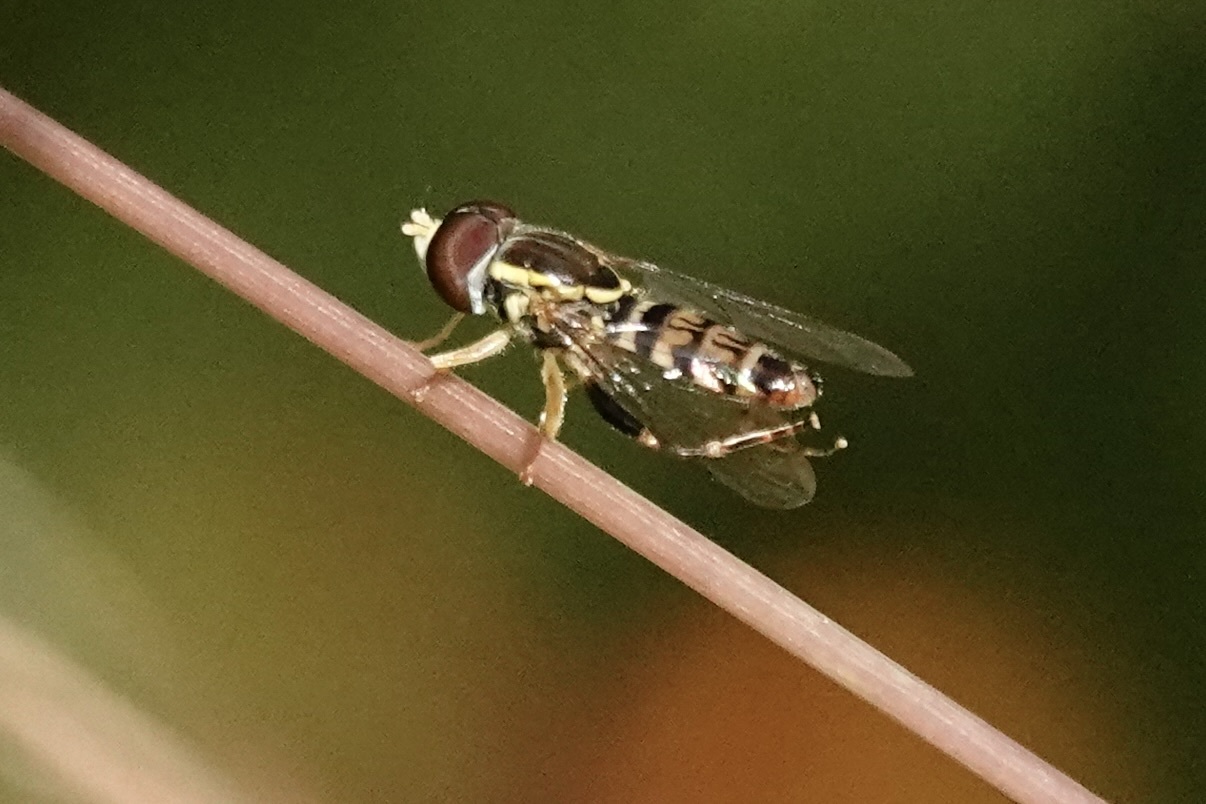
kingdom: Animalia
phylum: Arthropoda
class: Insecta
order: Diptera
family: Syrphidae
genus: Toxomerus
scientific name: Toxomerus geminatus
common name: Eastern calligrapher
